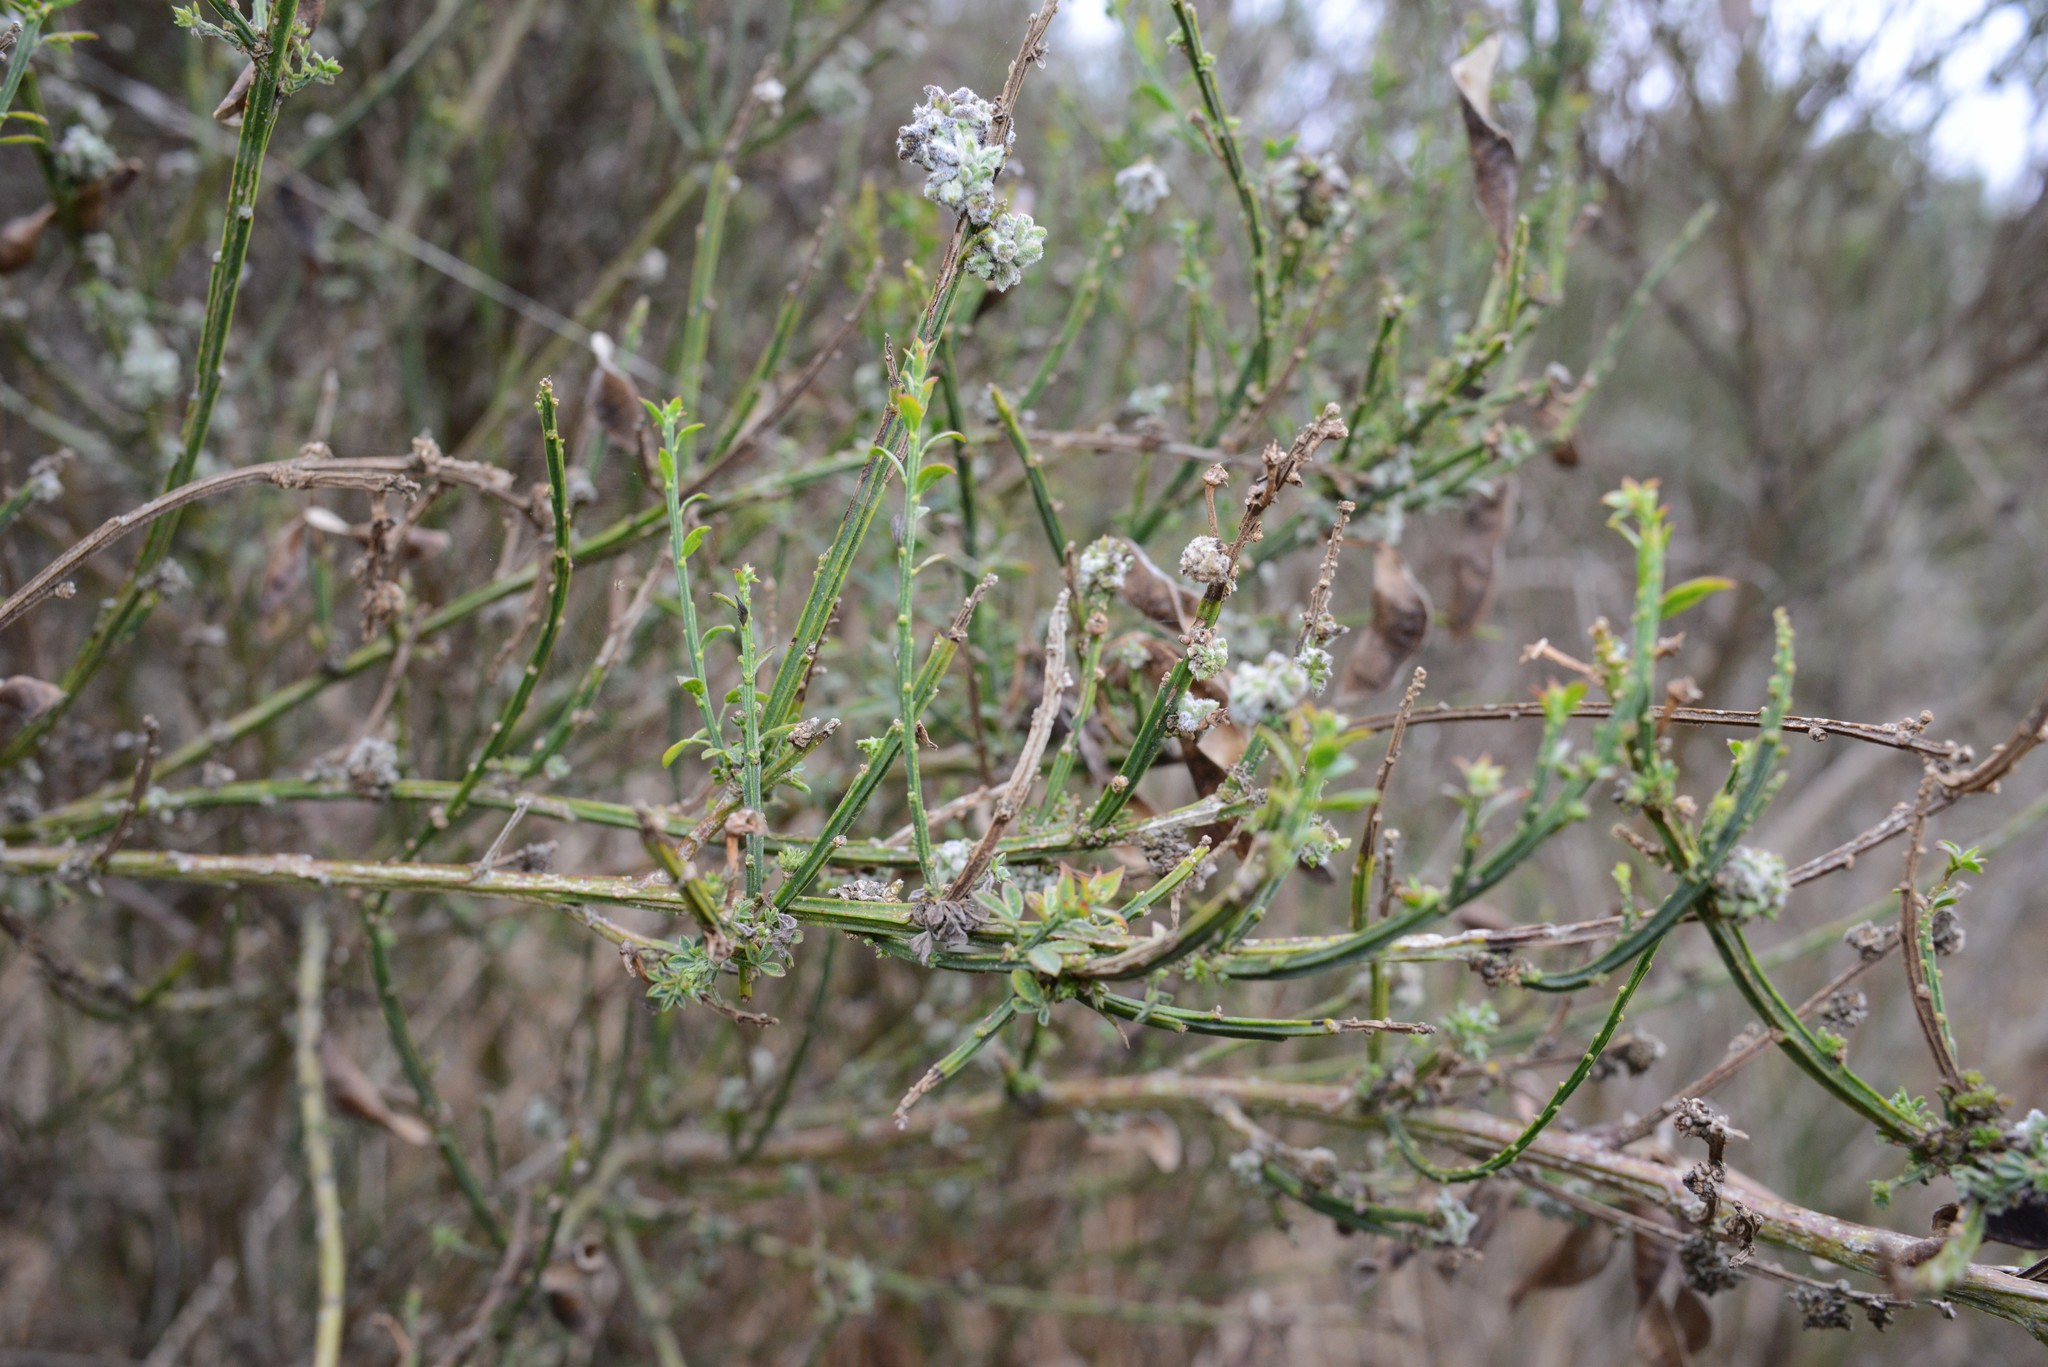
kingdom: Animalia
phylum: Arthropoda
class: Arachnida
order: Trombidiformes
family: Eriophyidae
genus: Aceria
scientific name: Aceria genistae
